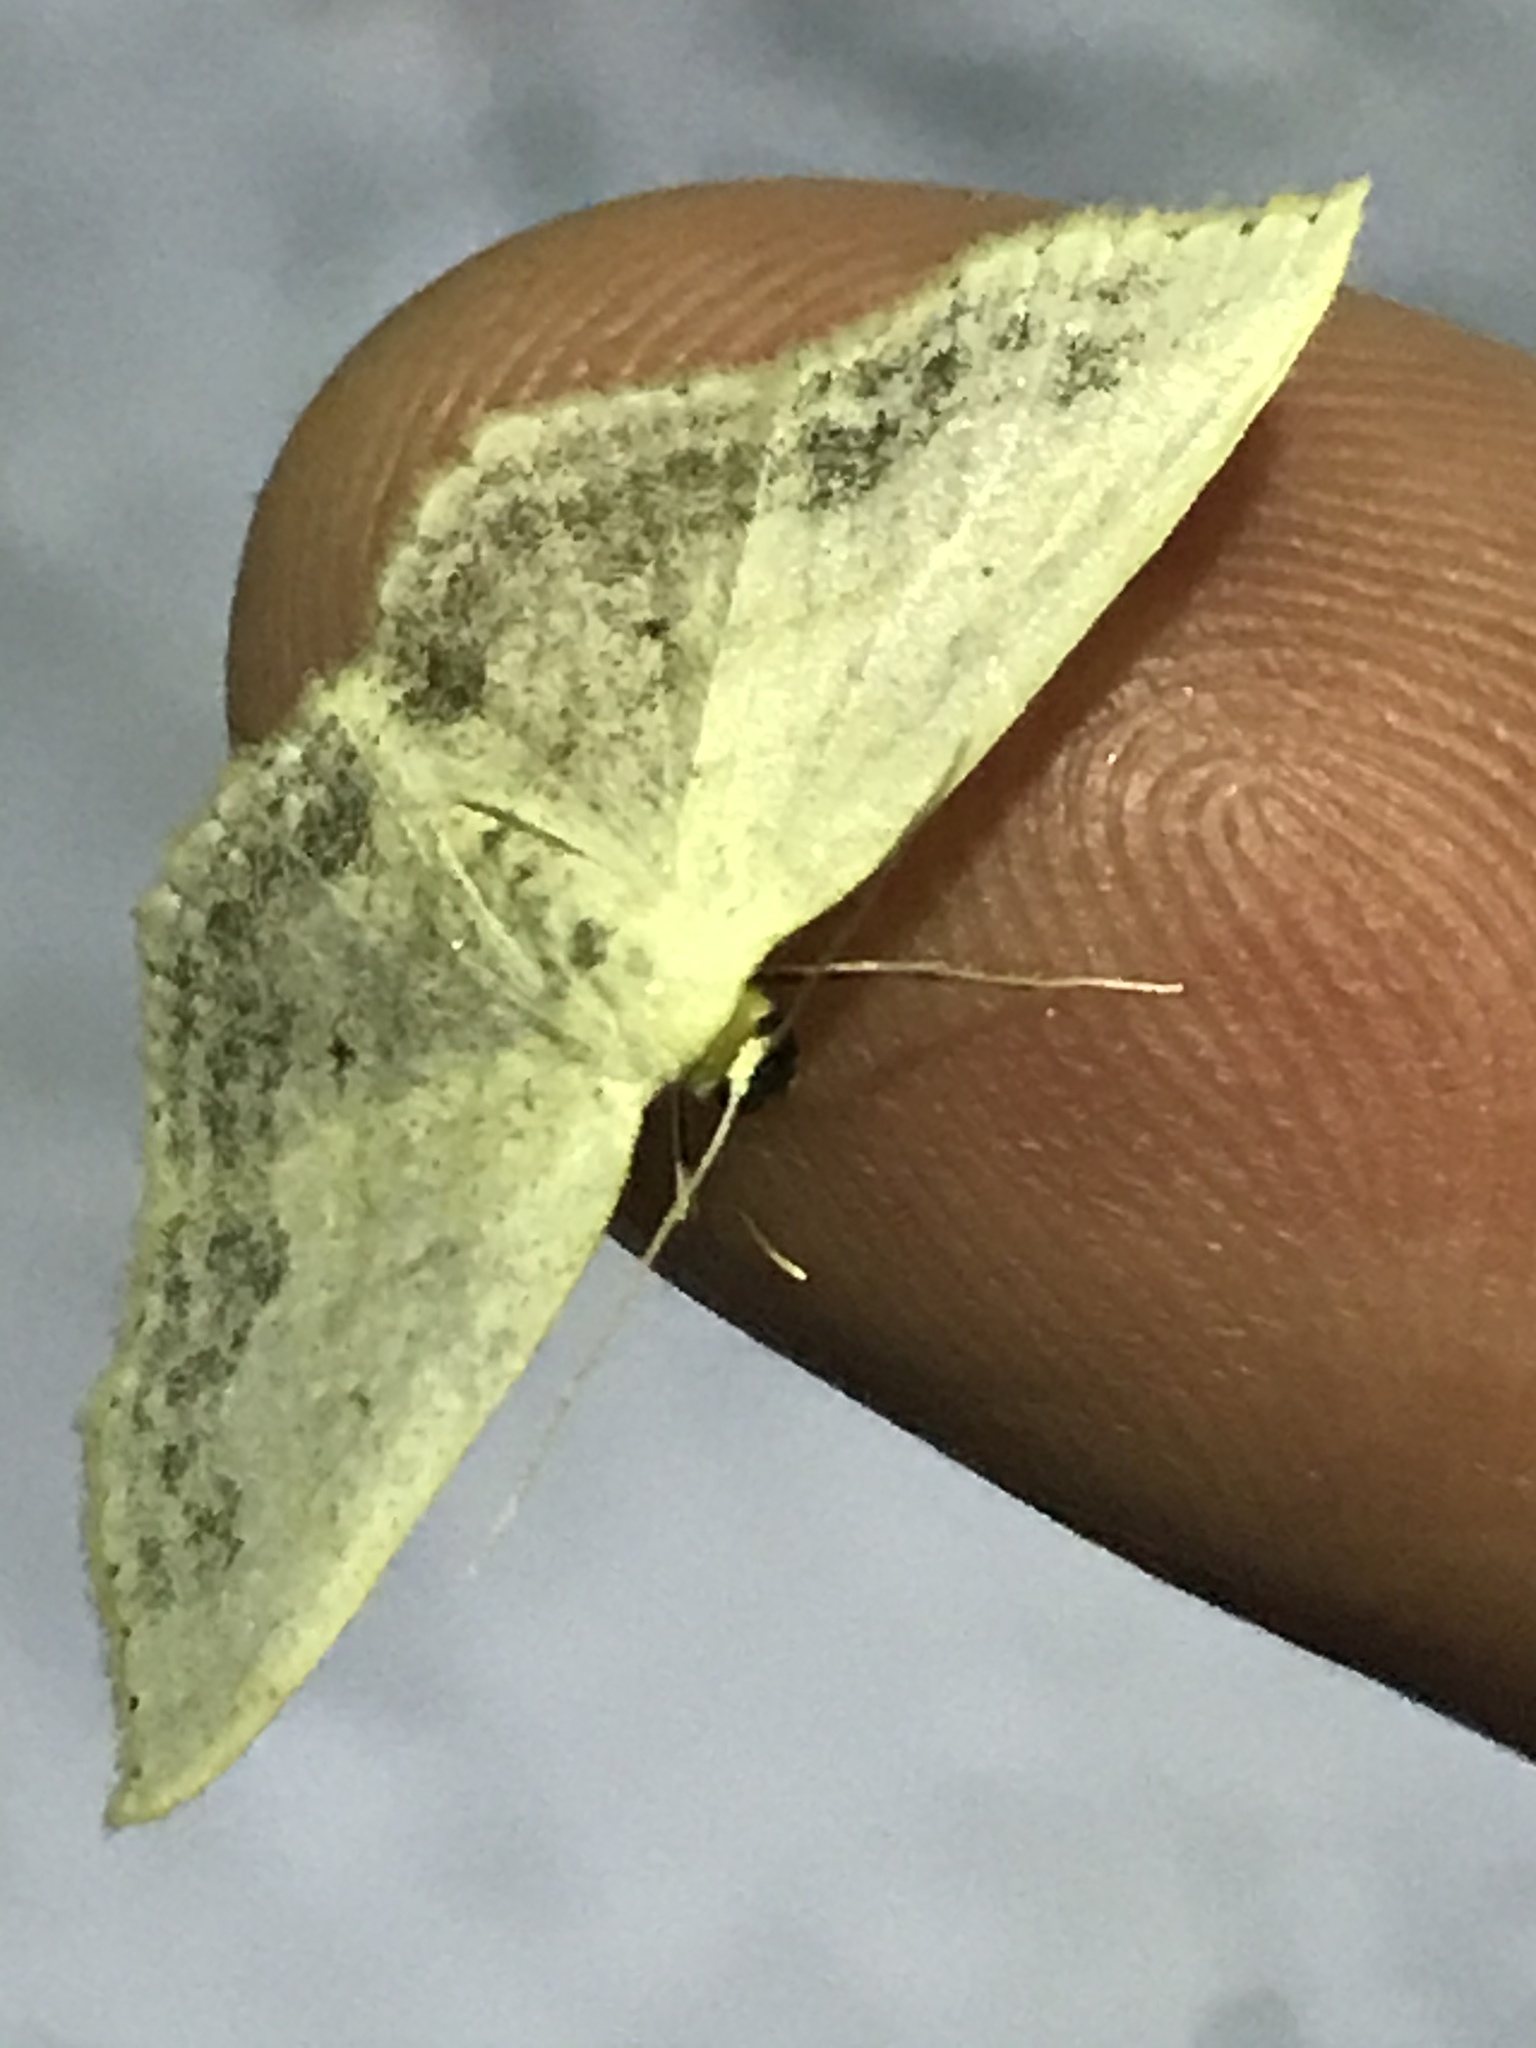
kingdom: Animalia
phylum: Arthropoda
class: Insecta
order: Lepidoptera
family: Geometridae
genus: Scopula
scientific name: Scopula limboundata
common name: Large lace border
